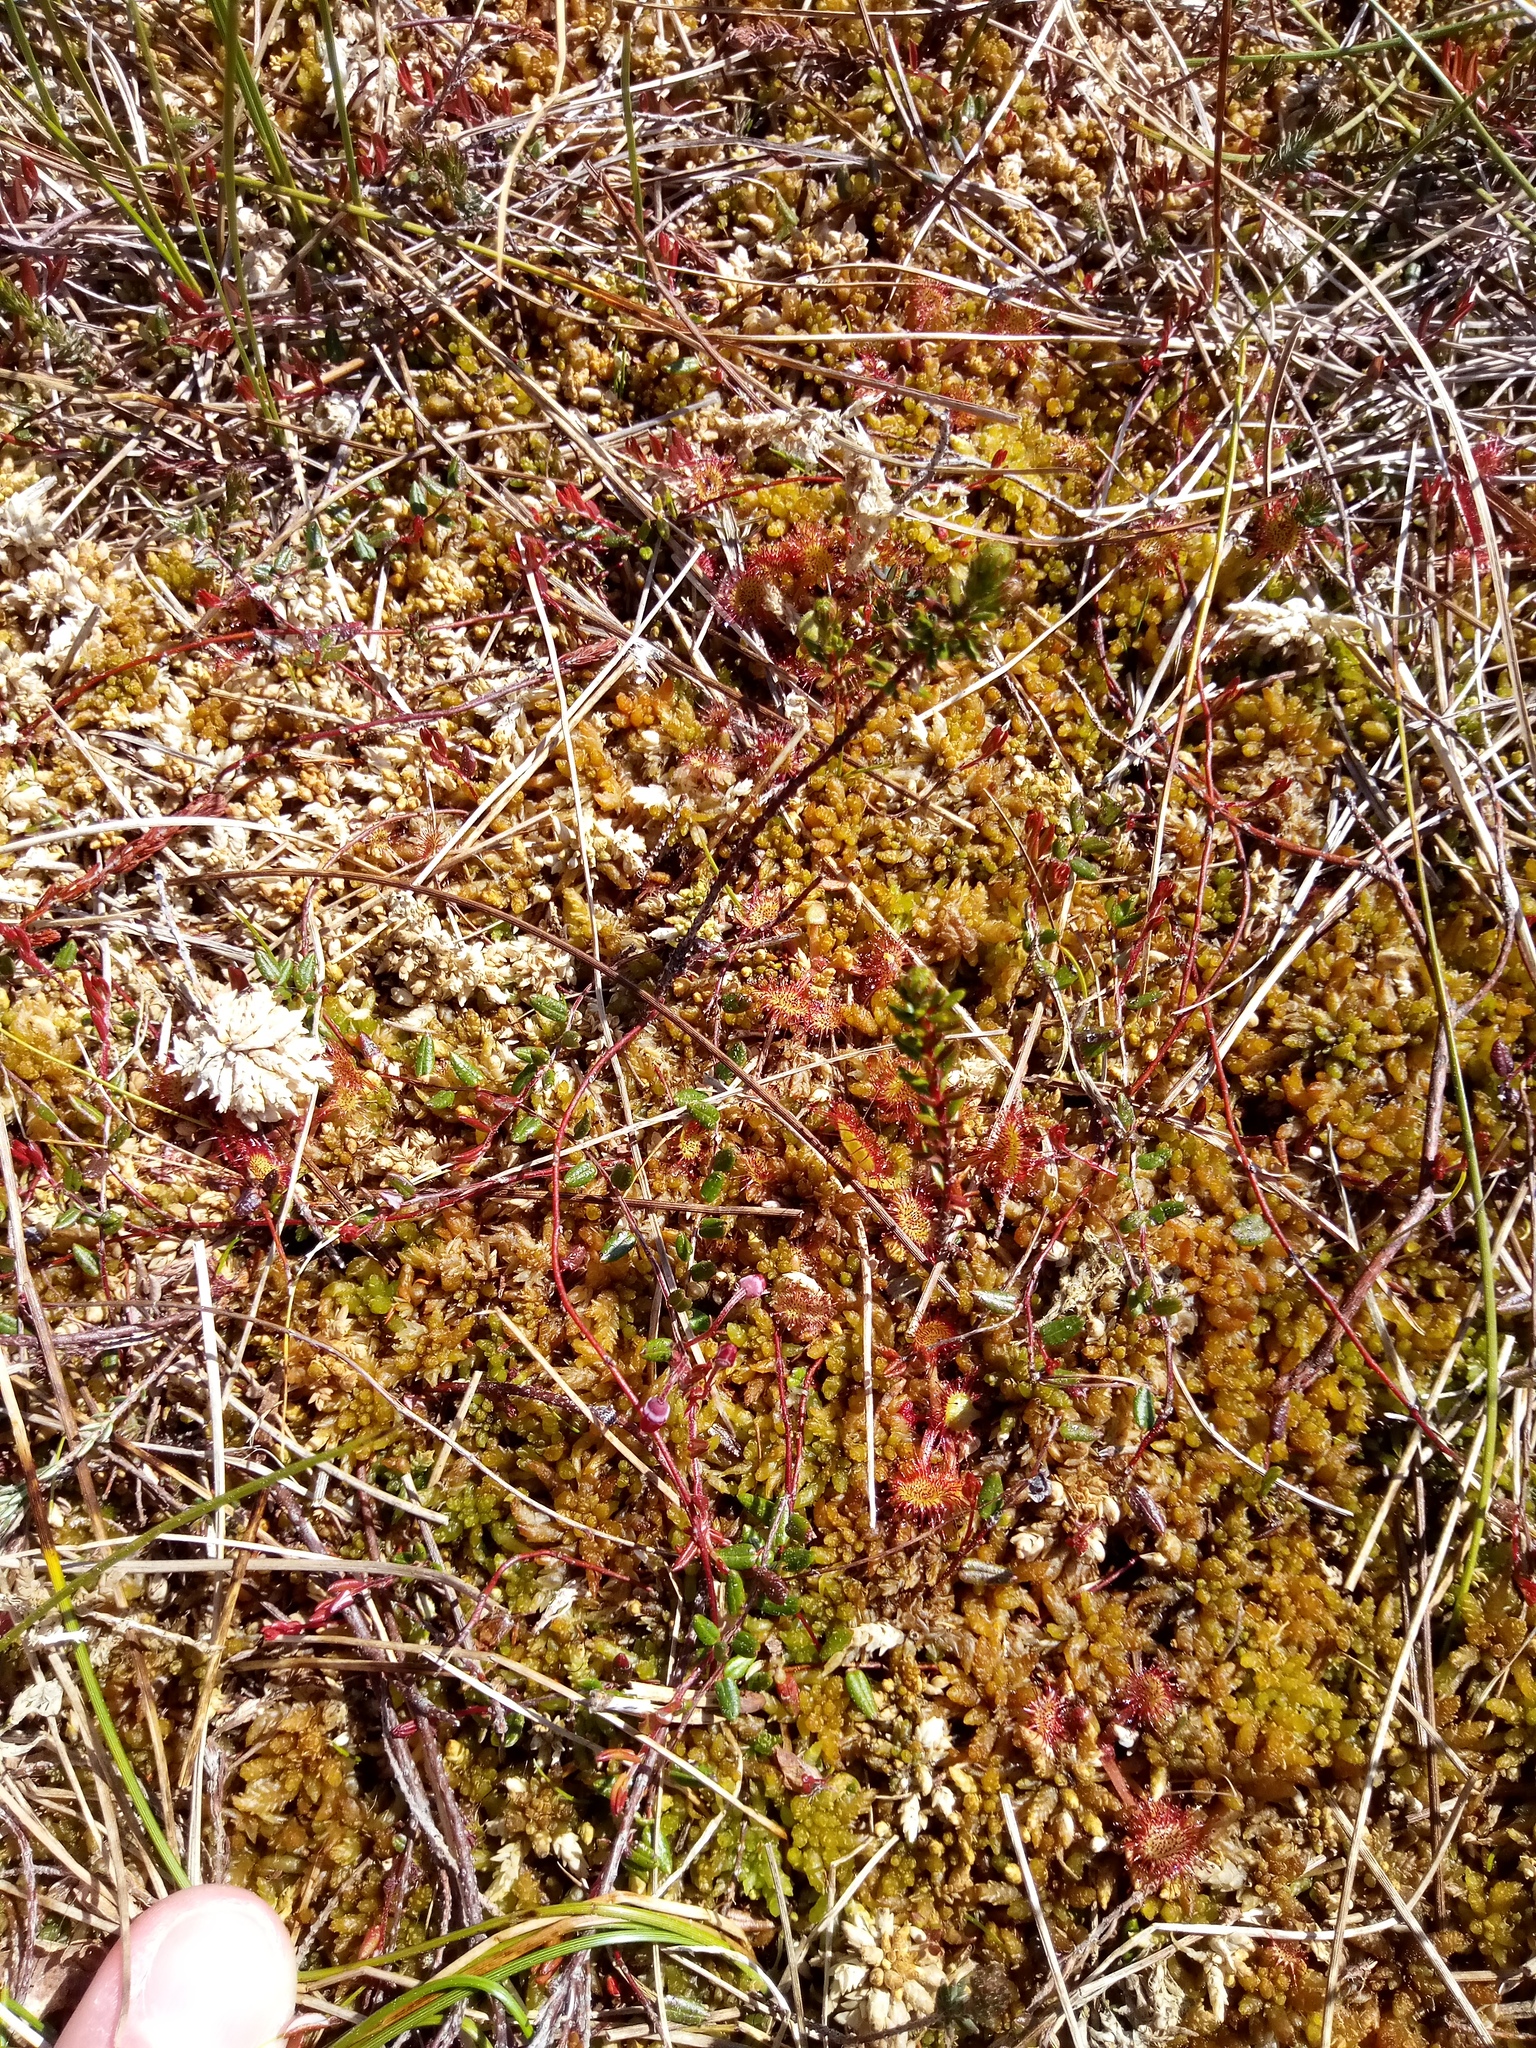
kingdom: Plantae
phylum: Tracheophyta
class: Magnoliopsida
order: Caryophyllales
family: Droseraceae
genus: Drosera
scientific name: Drosera rotundifolia
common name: Round-leaved sundew
